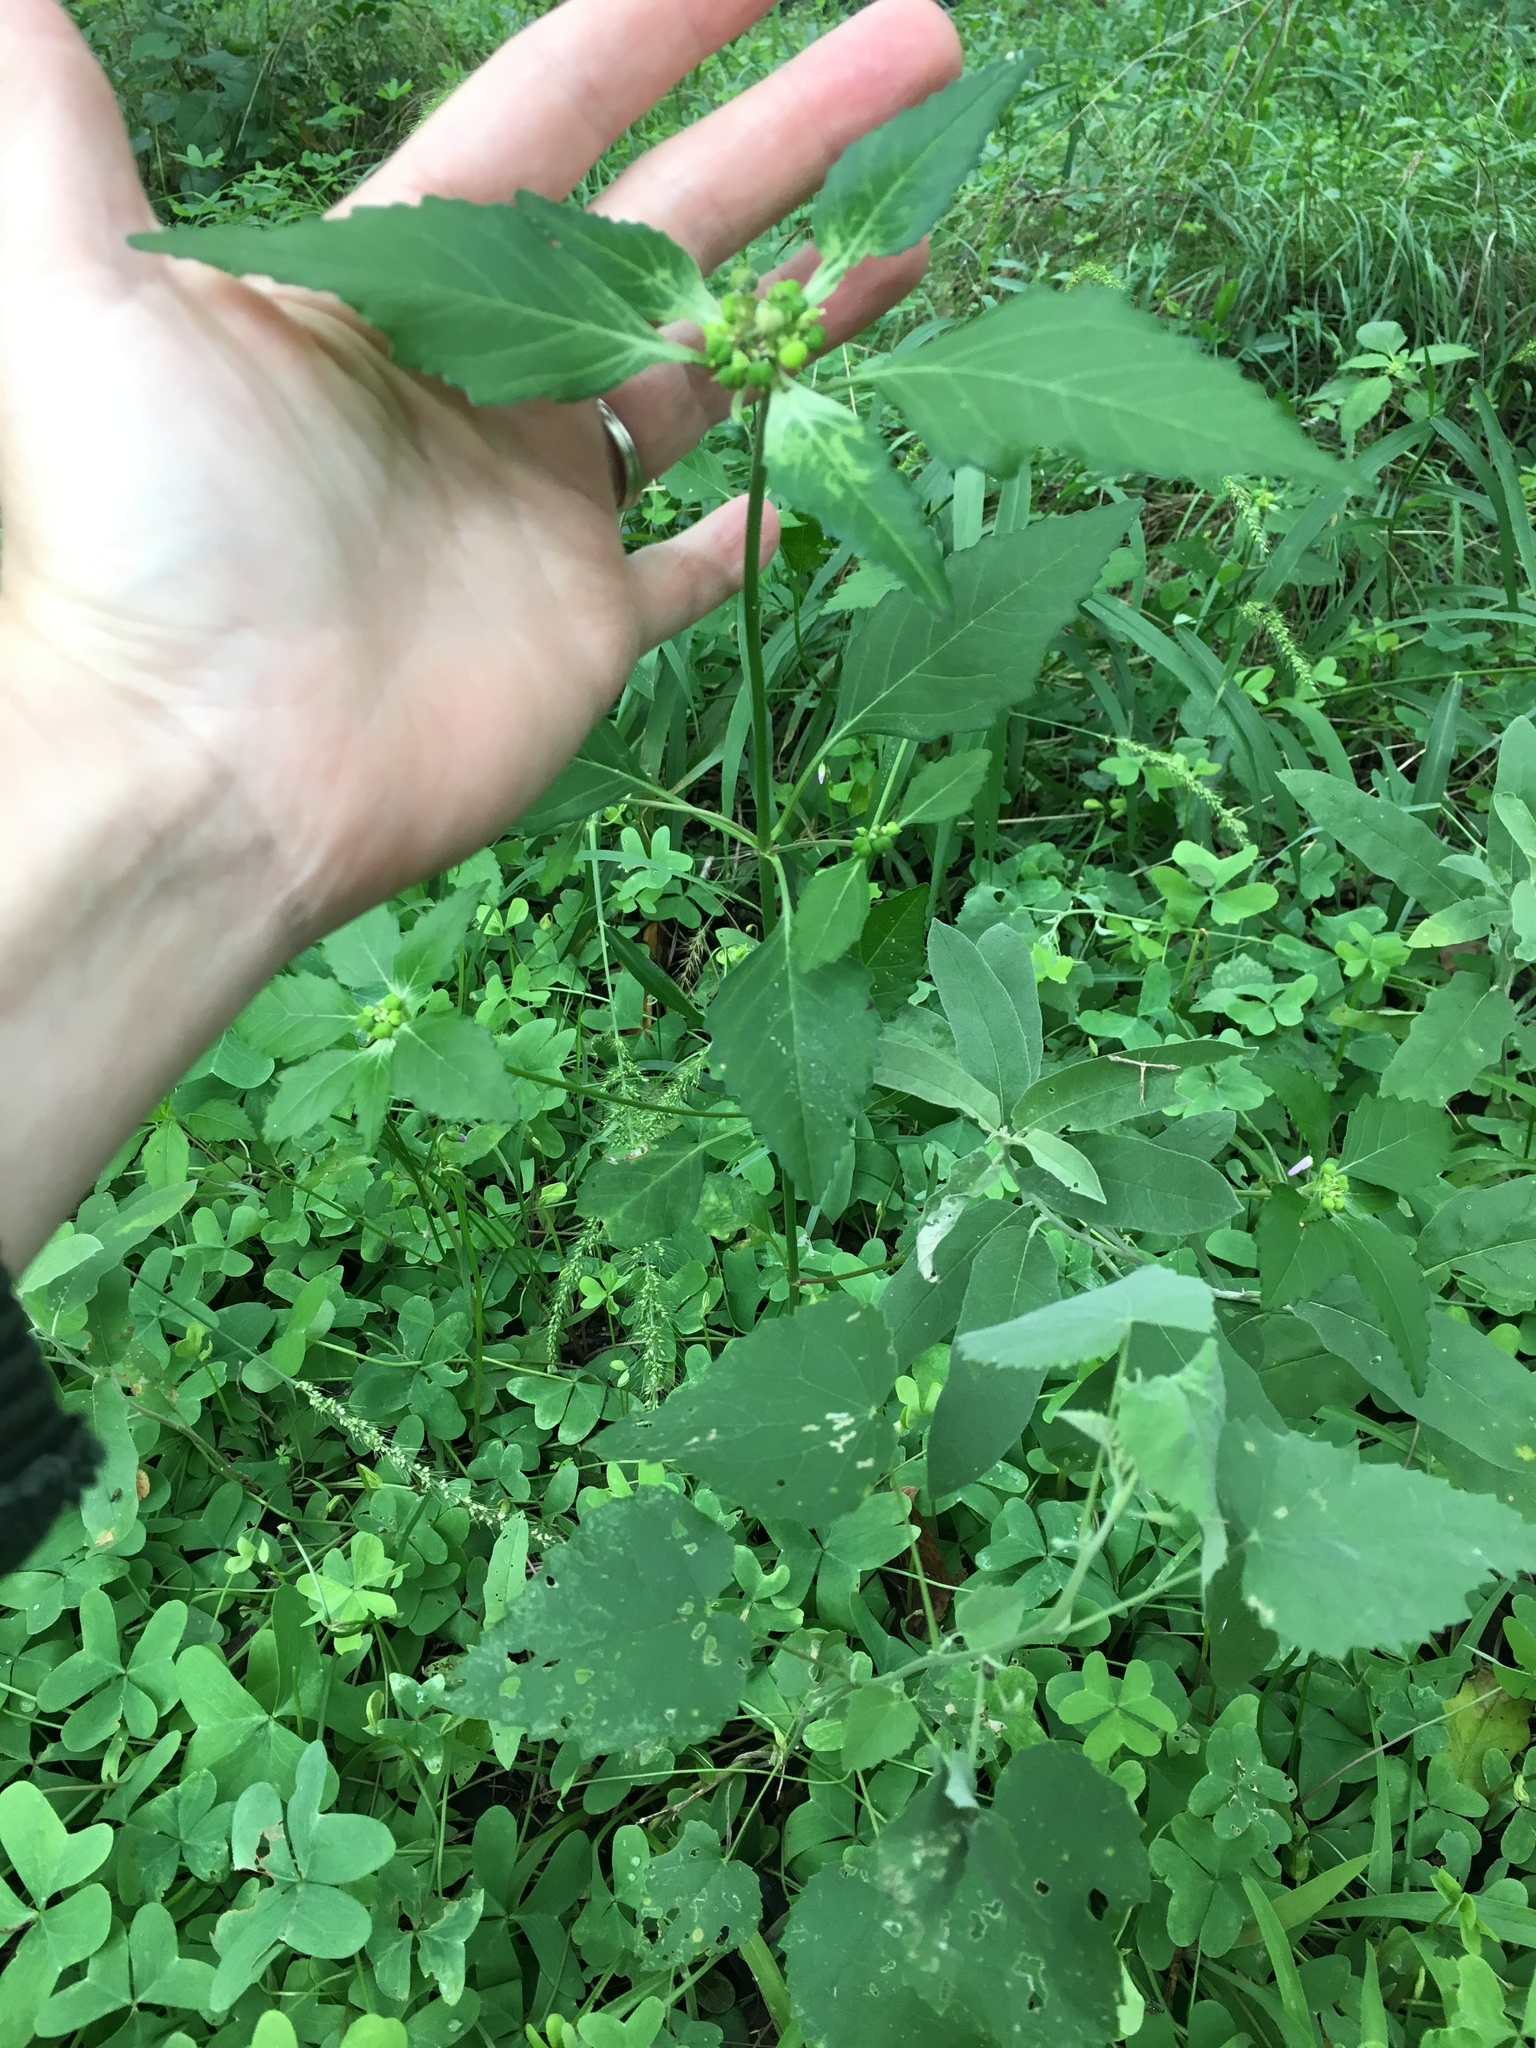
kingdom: Plantae
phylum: Tracheophyta
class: Magnoliopsida
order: Malpighiales
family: Euphorbiaceae
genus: Euphorbia
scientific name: Euphorbia dentata
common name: Dentate spurge
